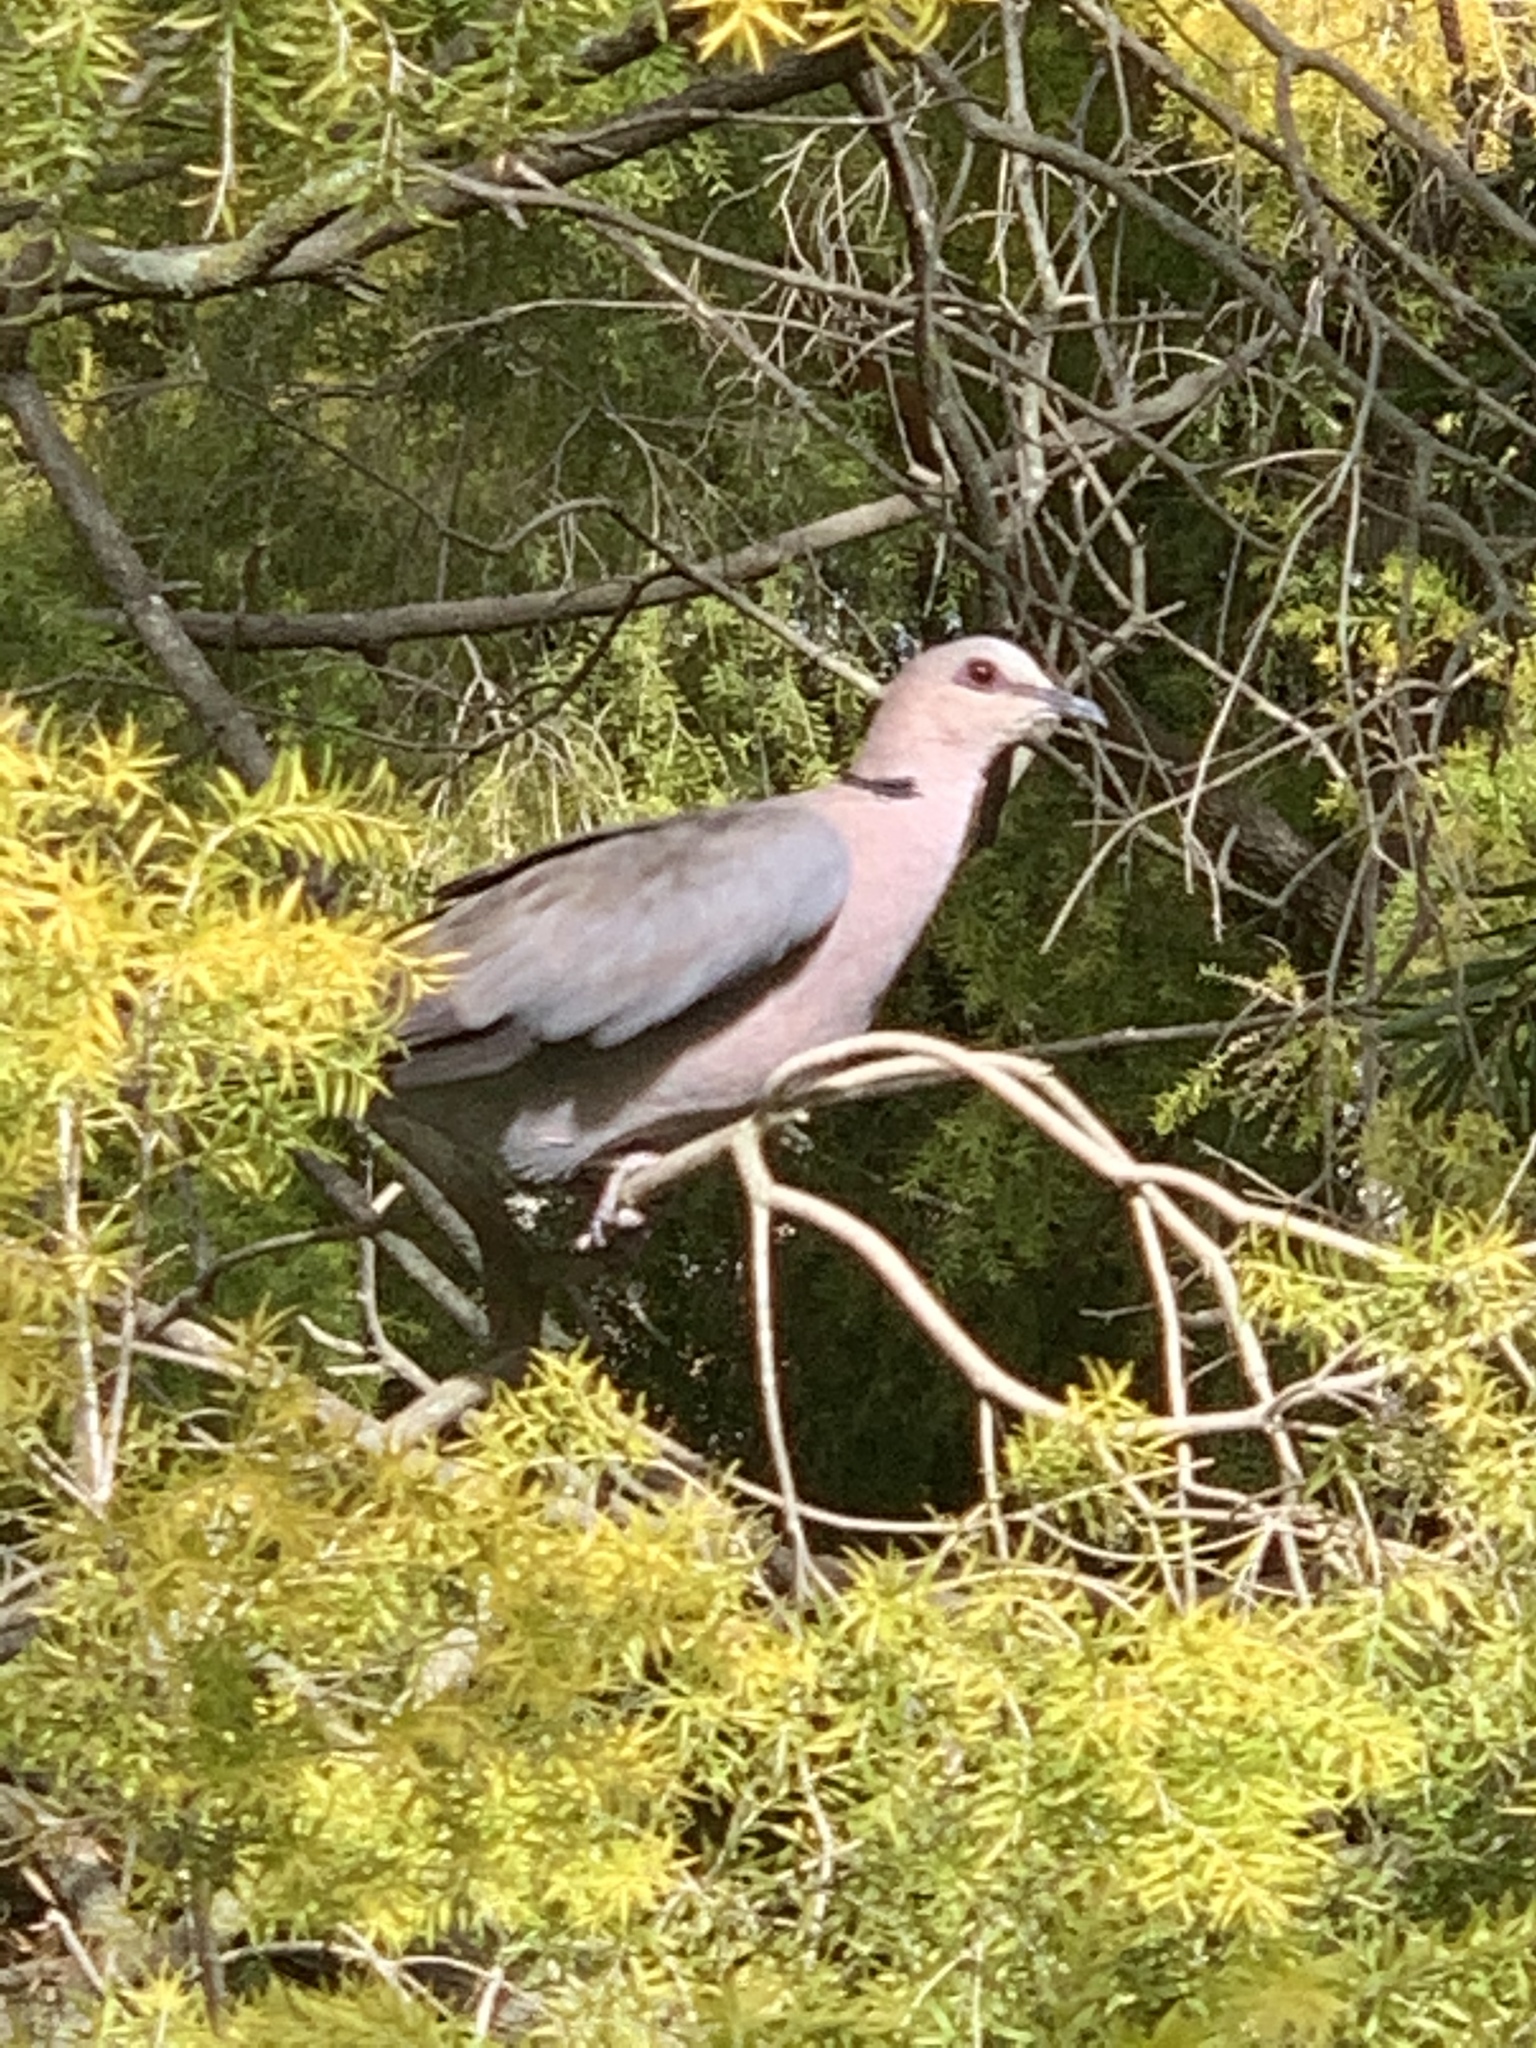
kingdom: Animalia
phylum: Chordata
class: Aves
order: Columbiformes
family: Columbidae
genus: Streptopelia
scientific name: Streptopelia semitorquata
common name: Red-eyed dove
